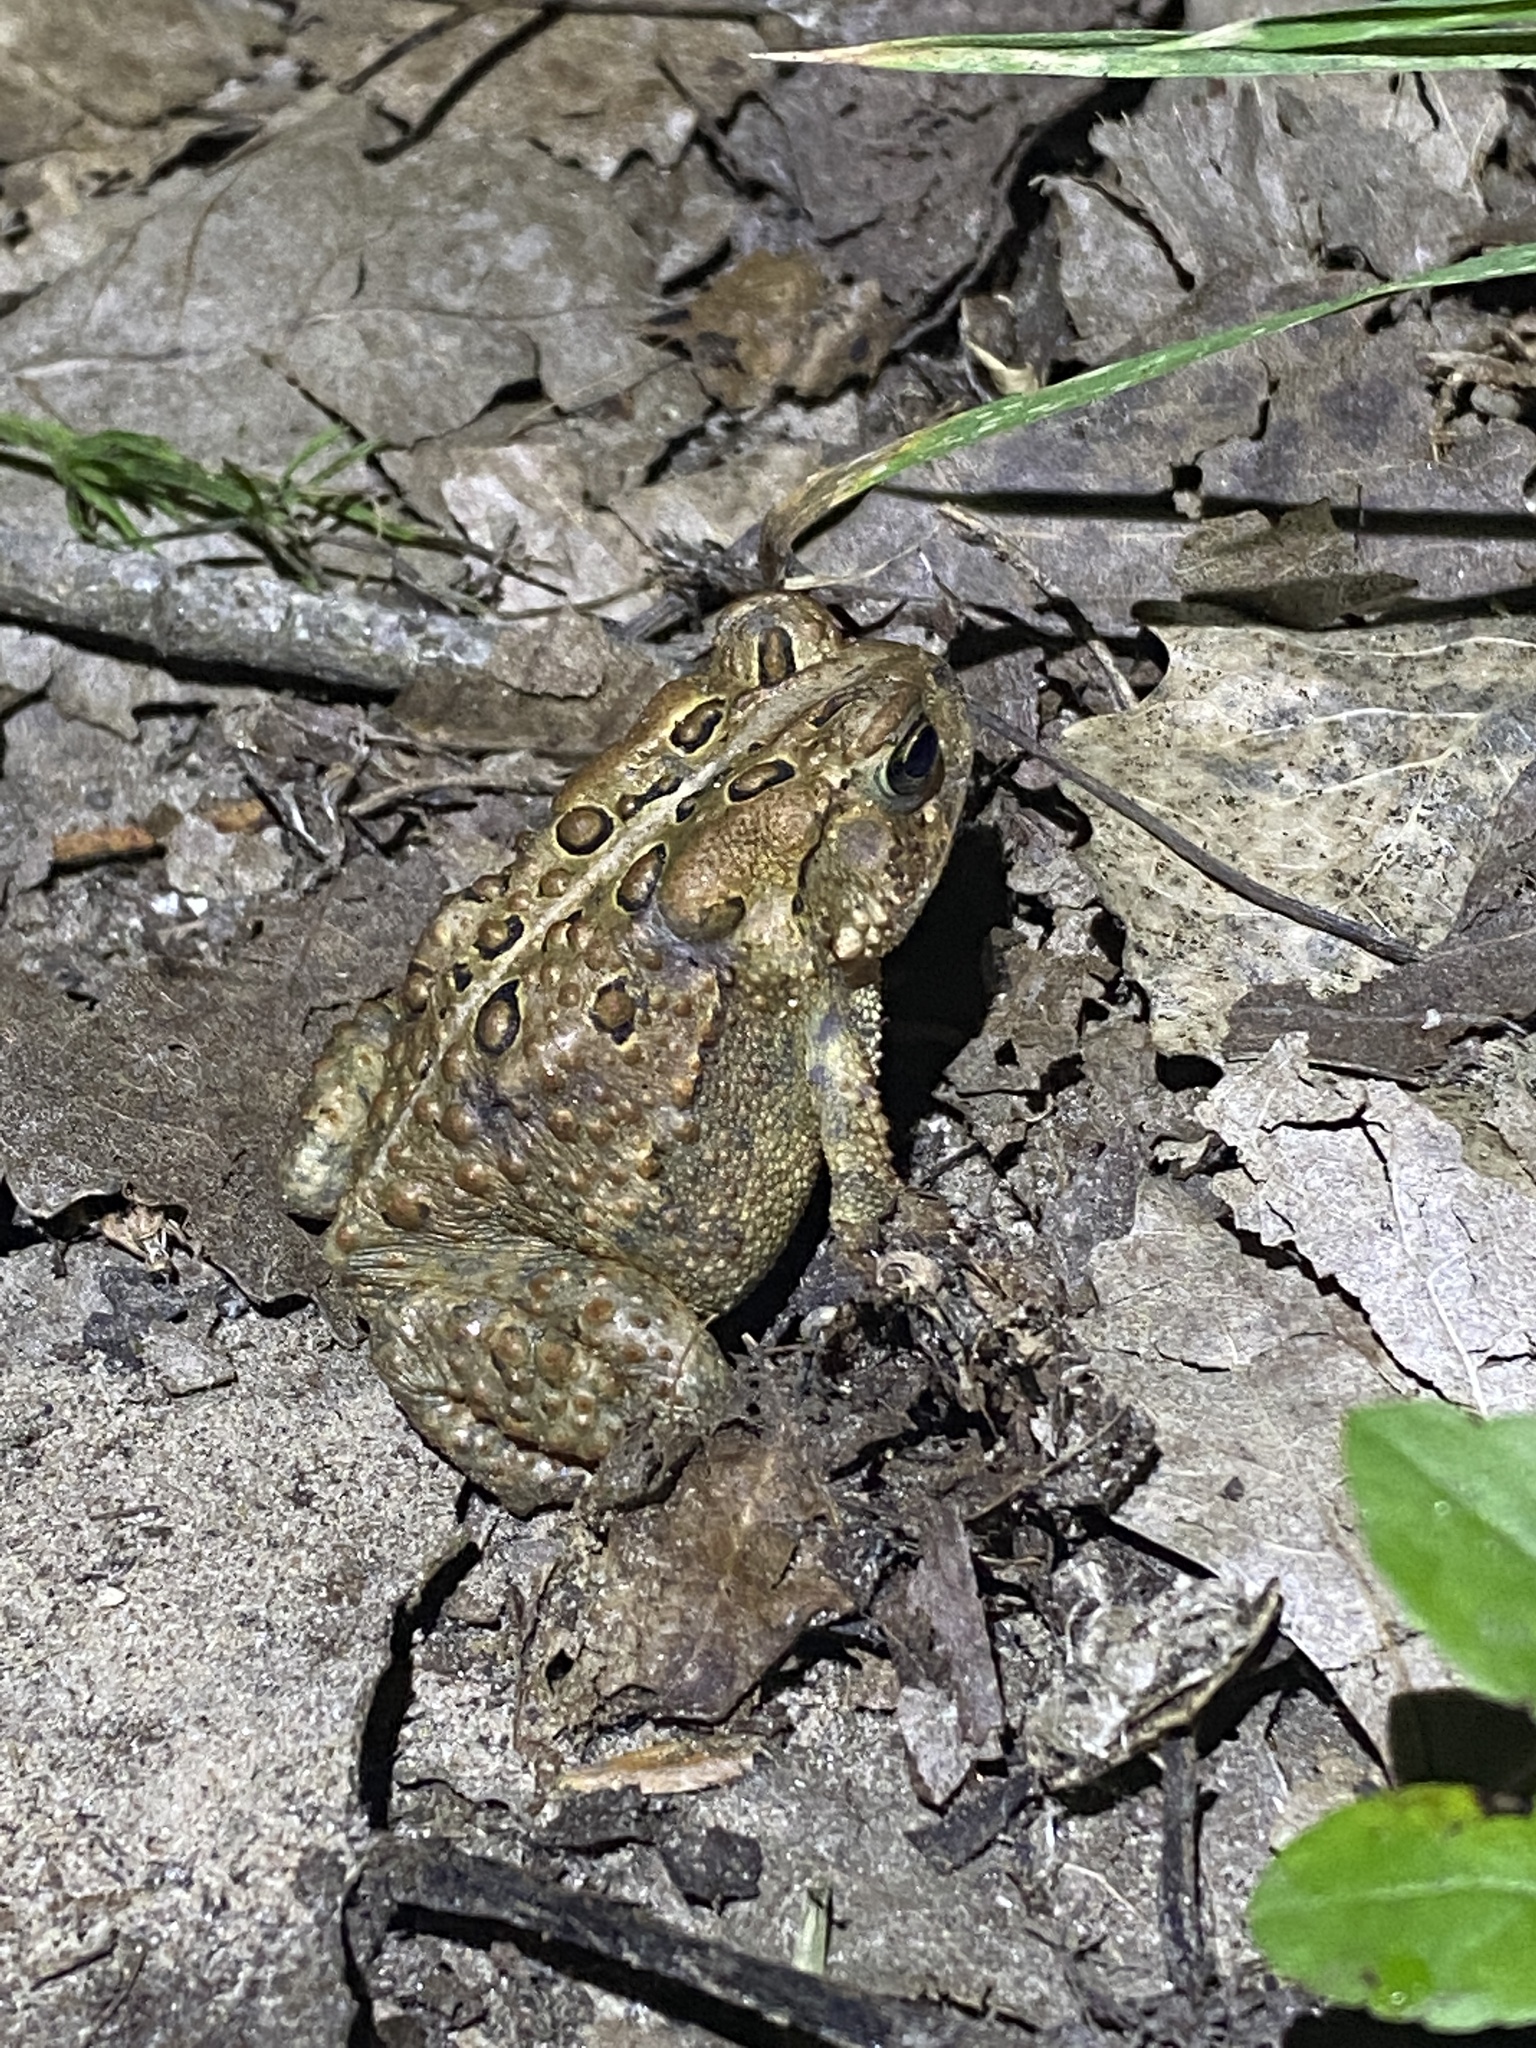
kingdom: Animalia
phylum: Chordata
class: Amphibia
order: Anura
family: Bufonidae
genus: Anaxyrus
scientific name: Anaxyrus americanus
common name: American toad
